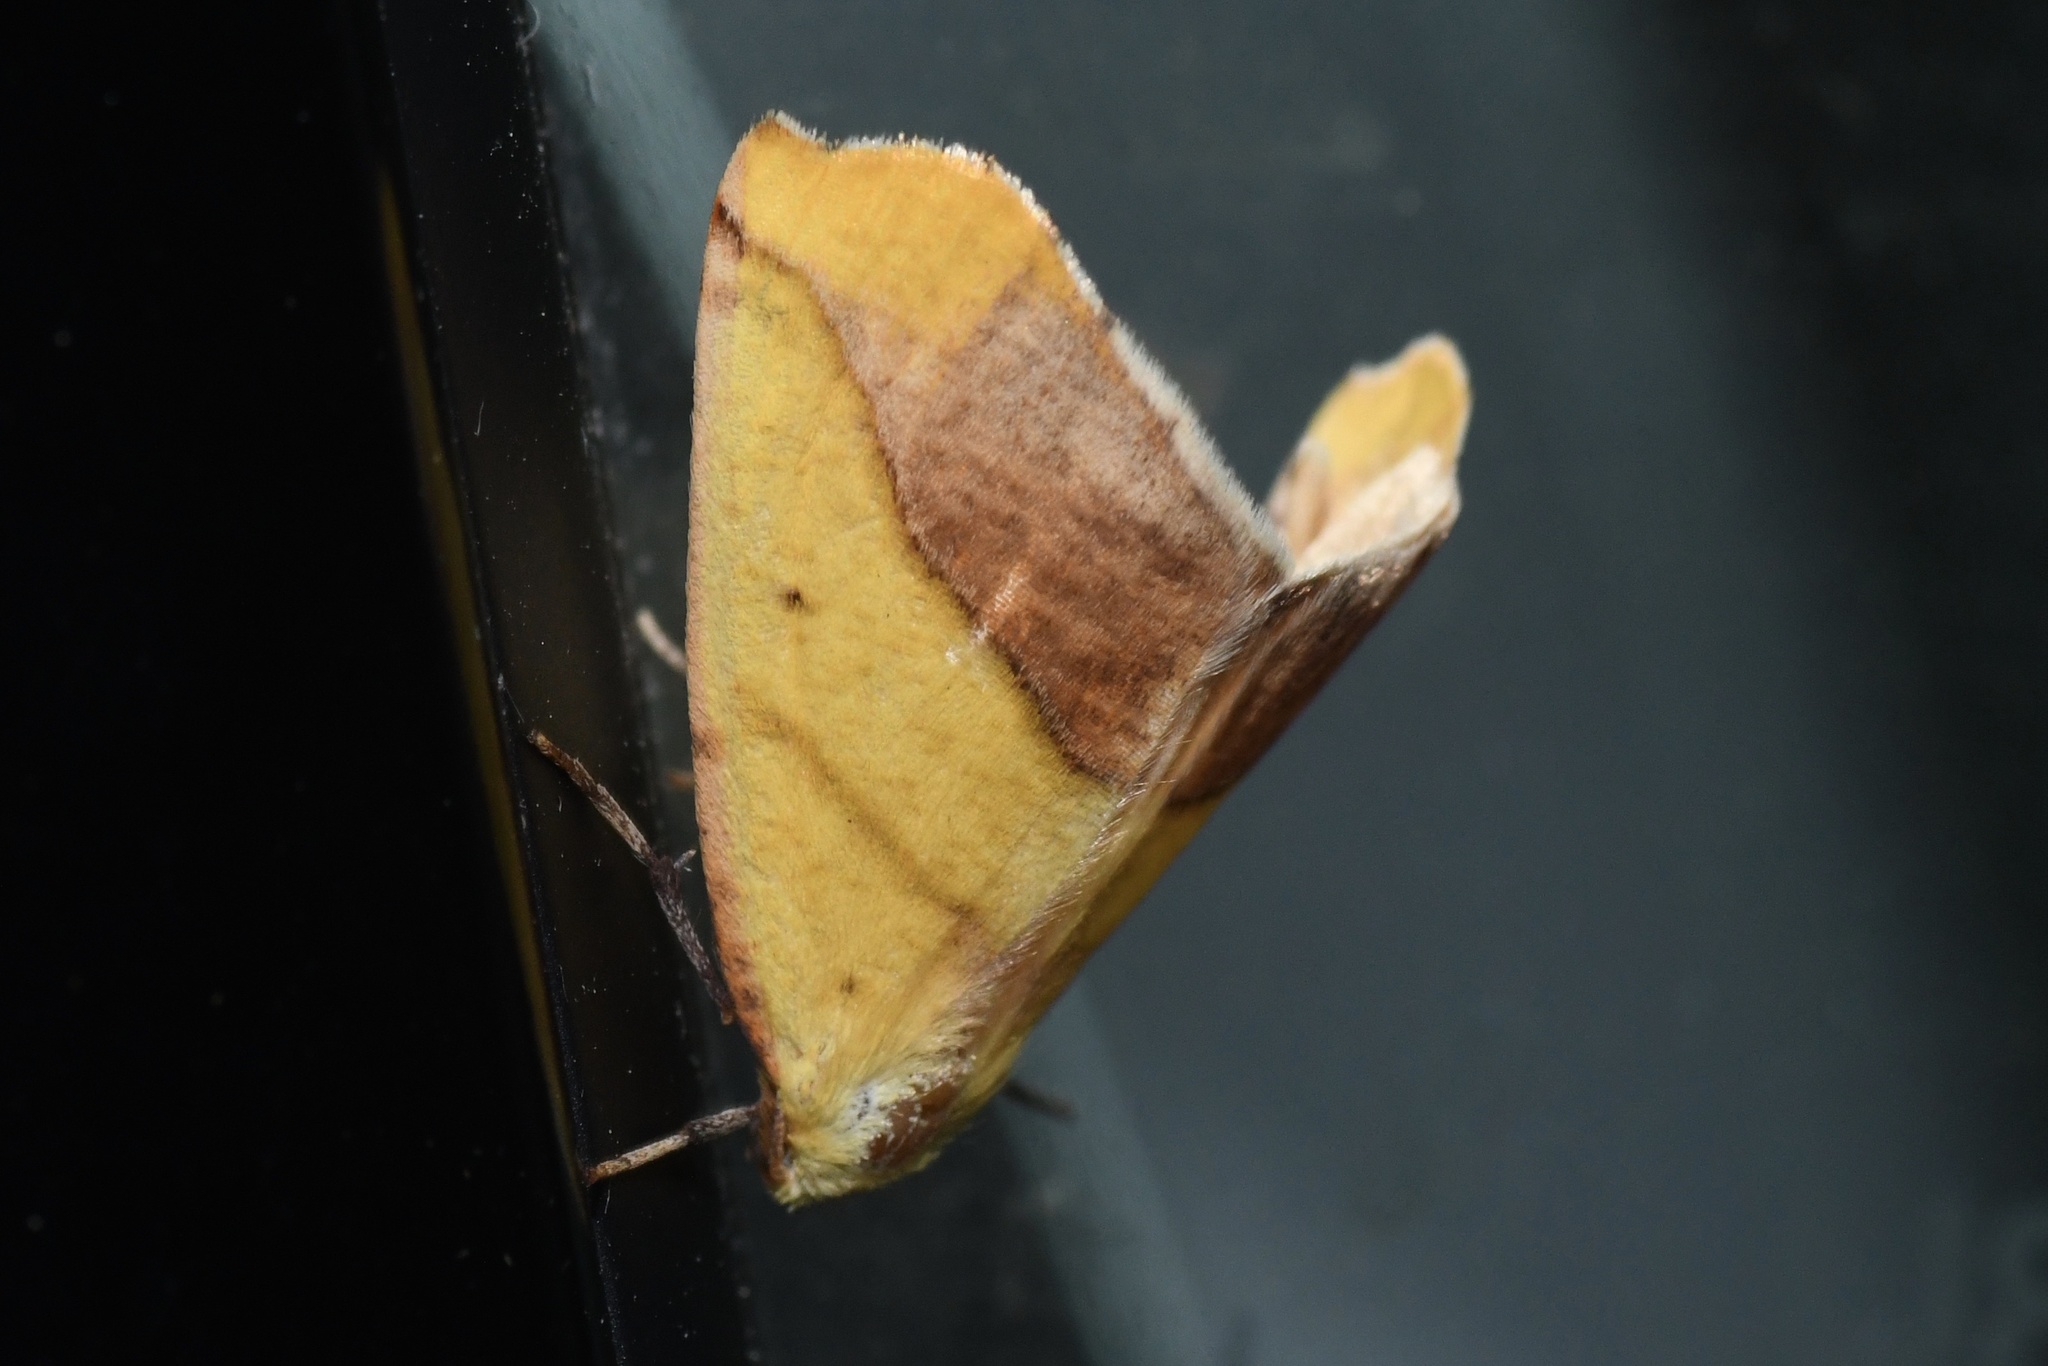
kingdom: Animalia
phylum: Arthropoda
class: Insecta
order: Lepidoptera
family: Geometridae
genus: Sicya
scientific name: Sicya macularia
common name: Sharp-lined yellow
